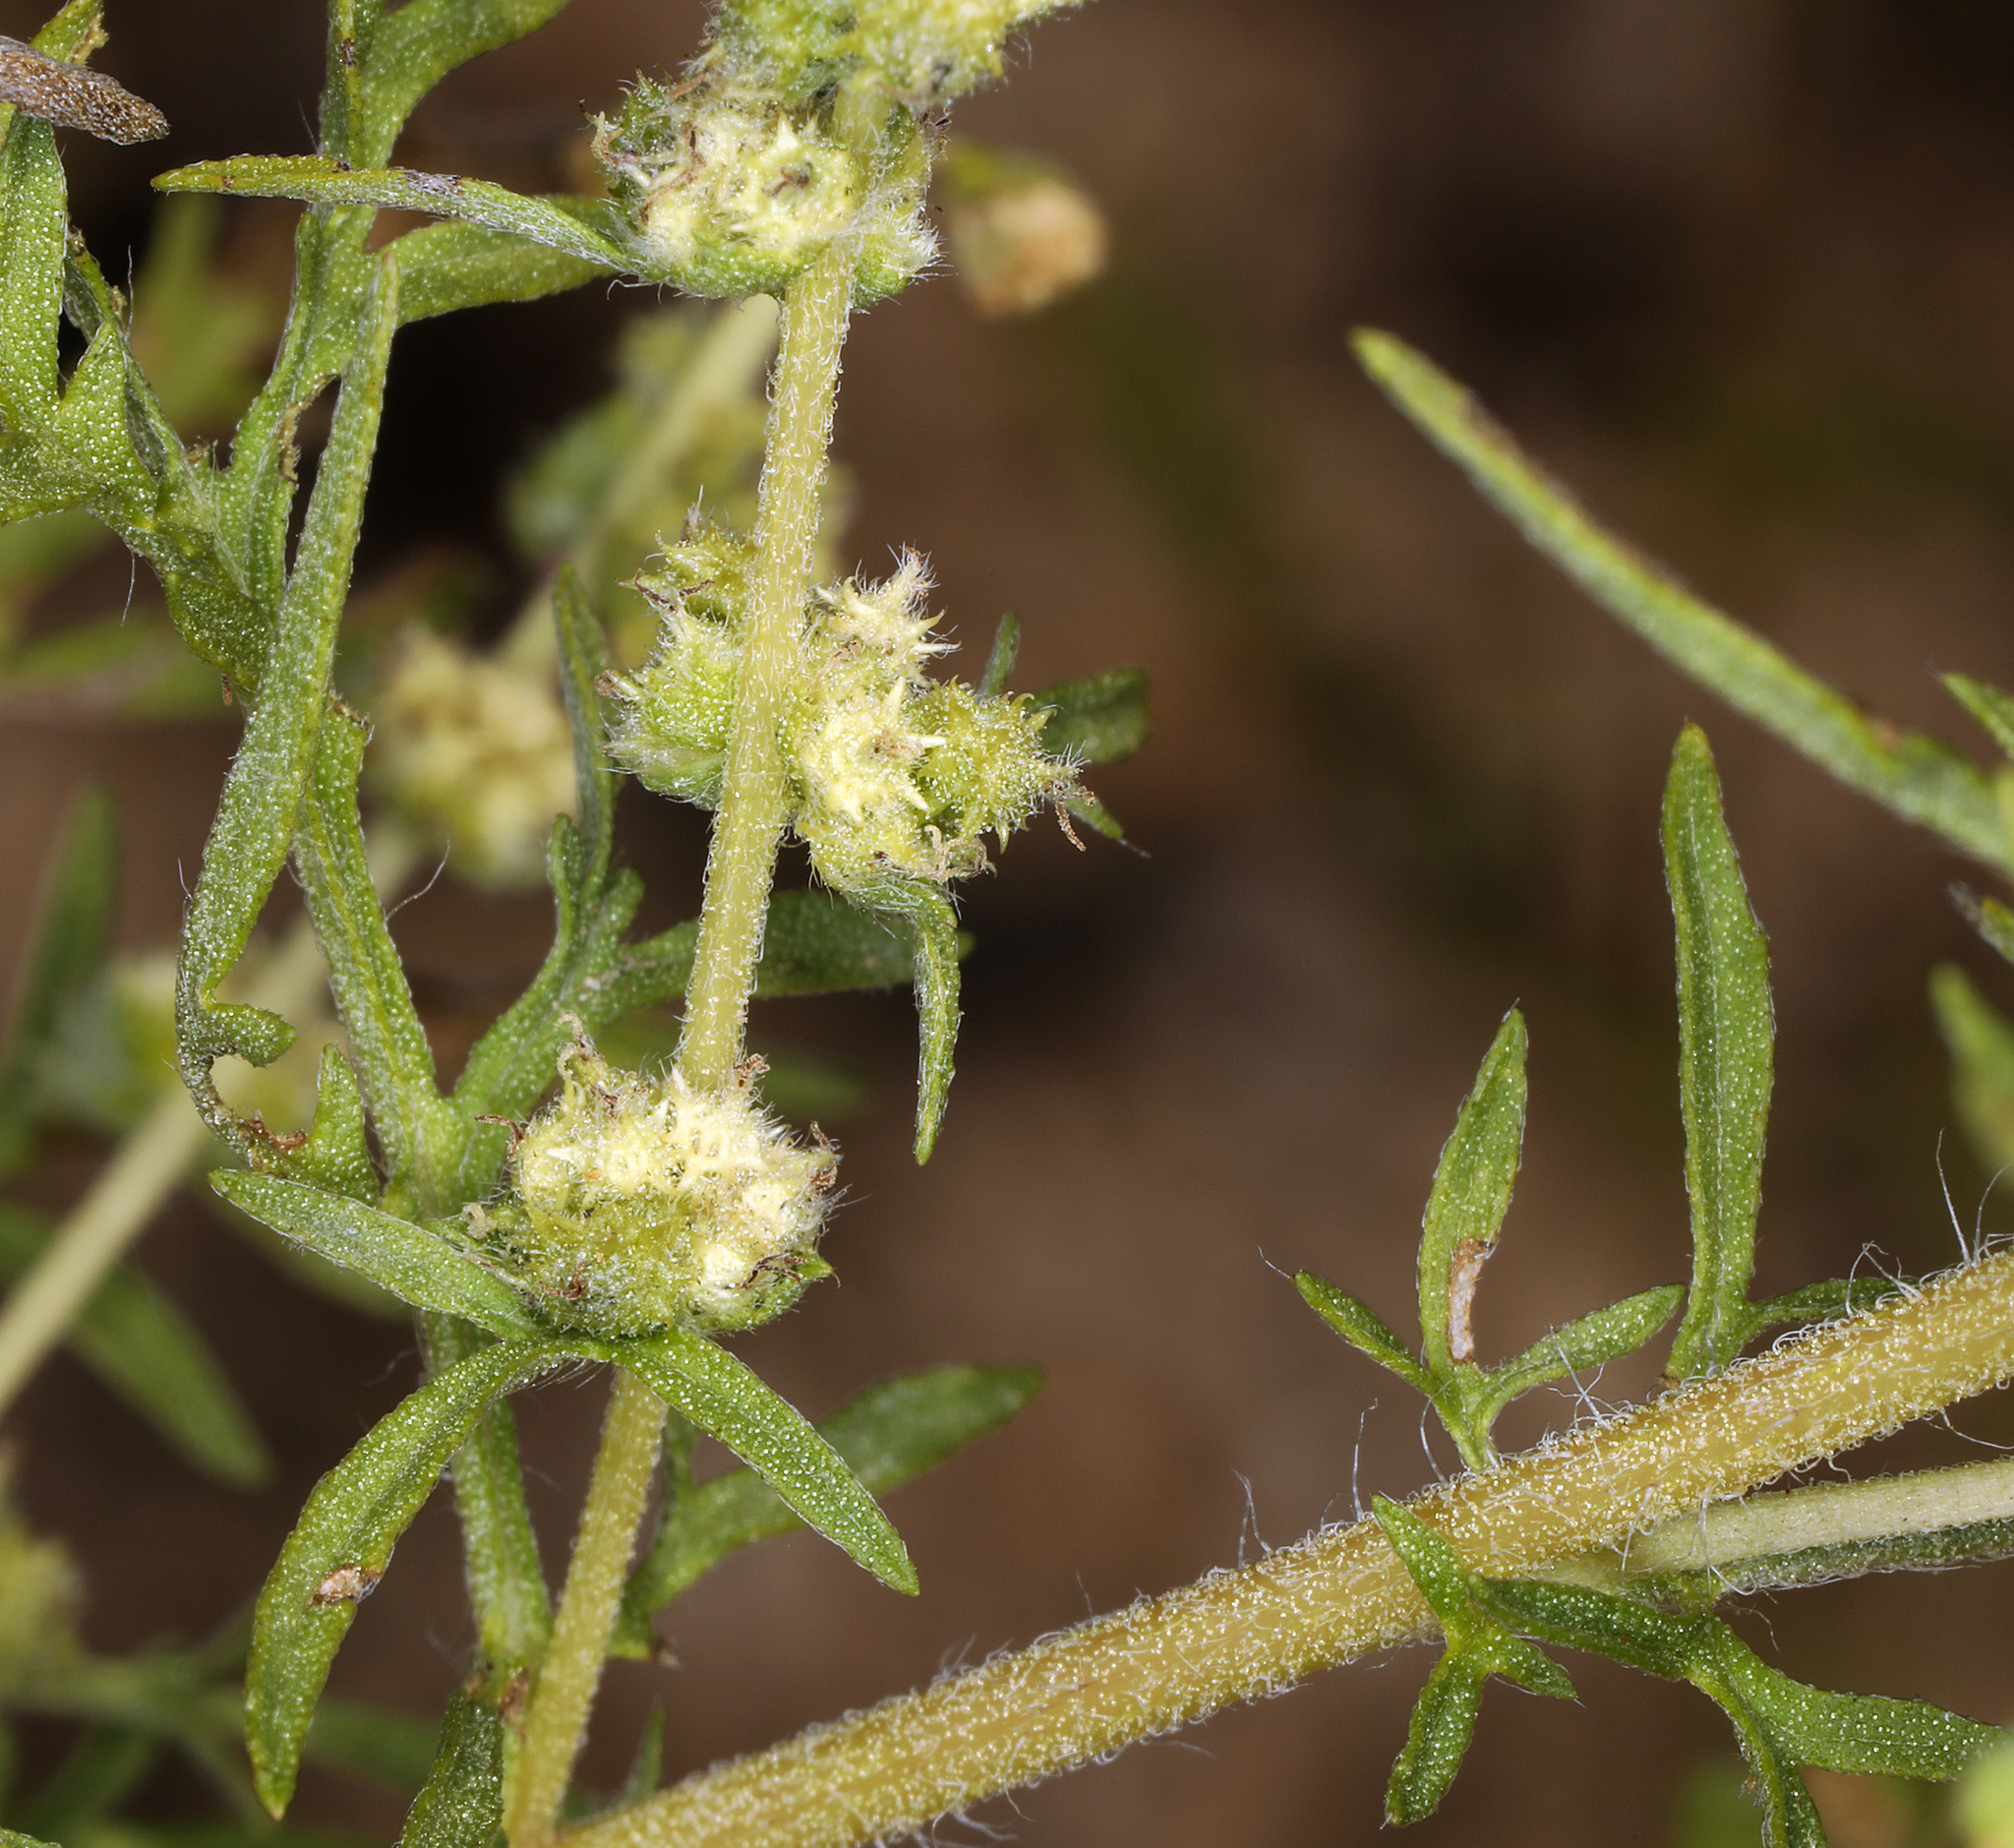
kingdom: Plantae
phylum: Tracheophyta
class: Magnoliopsida
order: Asterales
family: Asteraceae
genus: Ambrosia
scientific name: Ambrosia confertiflora
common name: Bur ragweed
